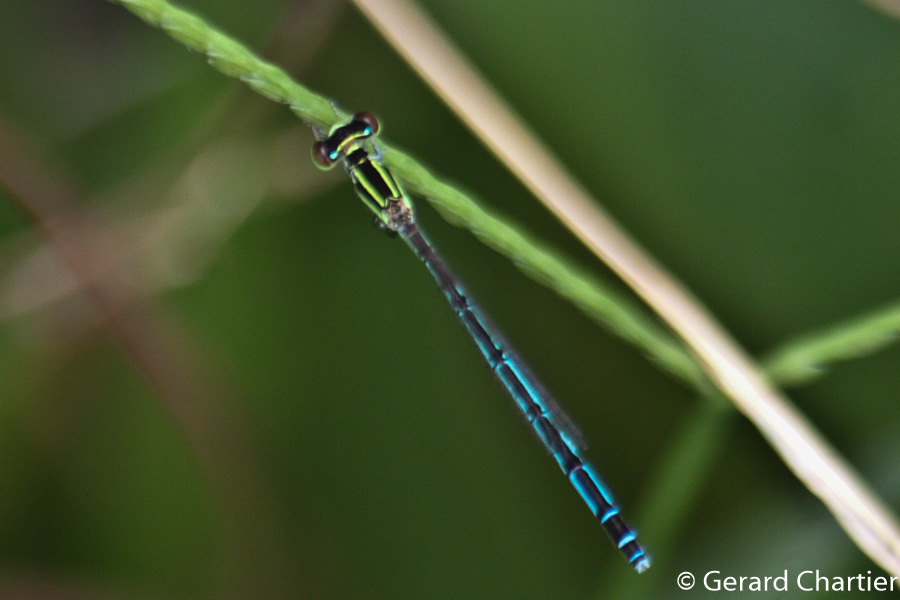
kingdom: Animalia
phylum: Arthropoda
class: Insecta
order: Odonata
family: Coenagrionidae
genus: Agriocnemis
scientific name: Agriocnemis nana
